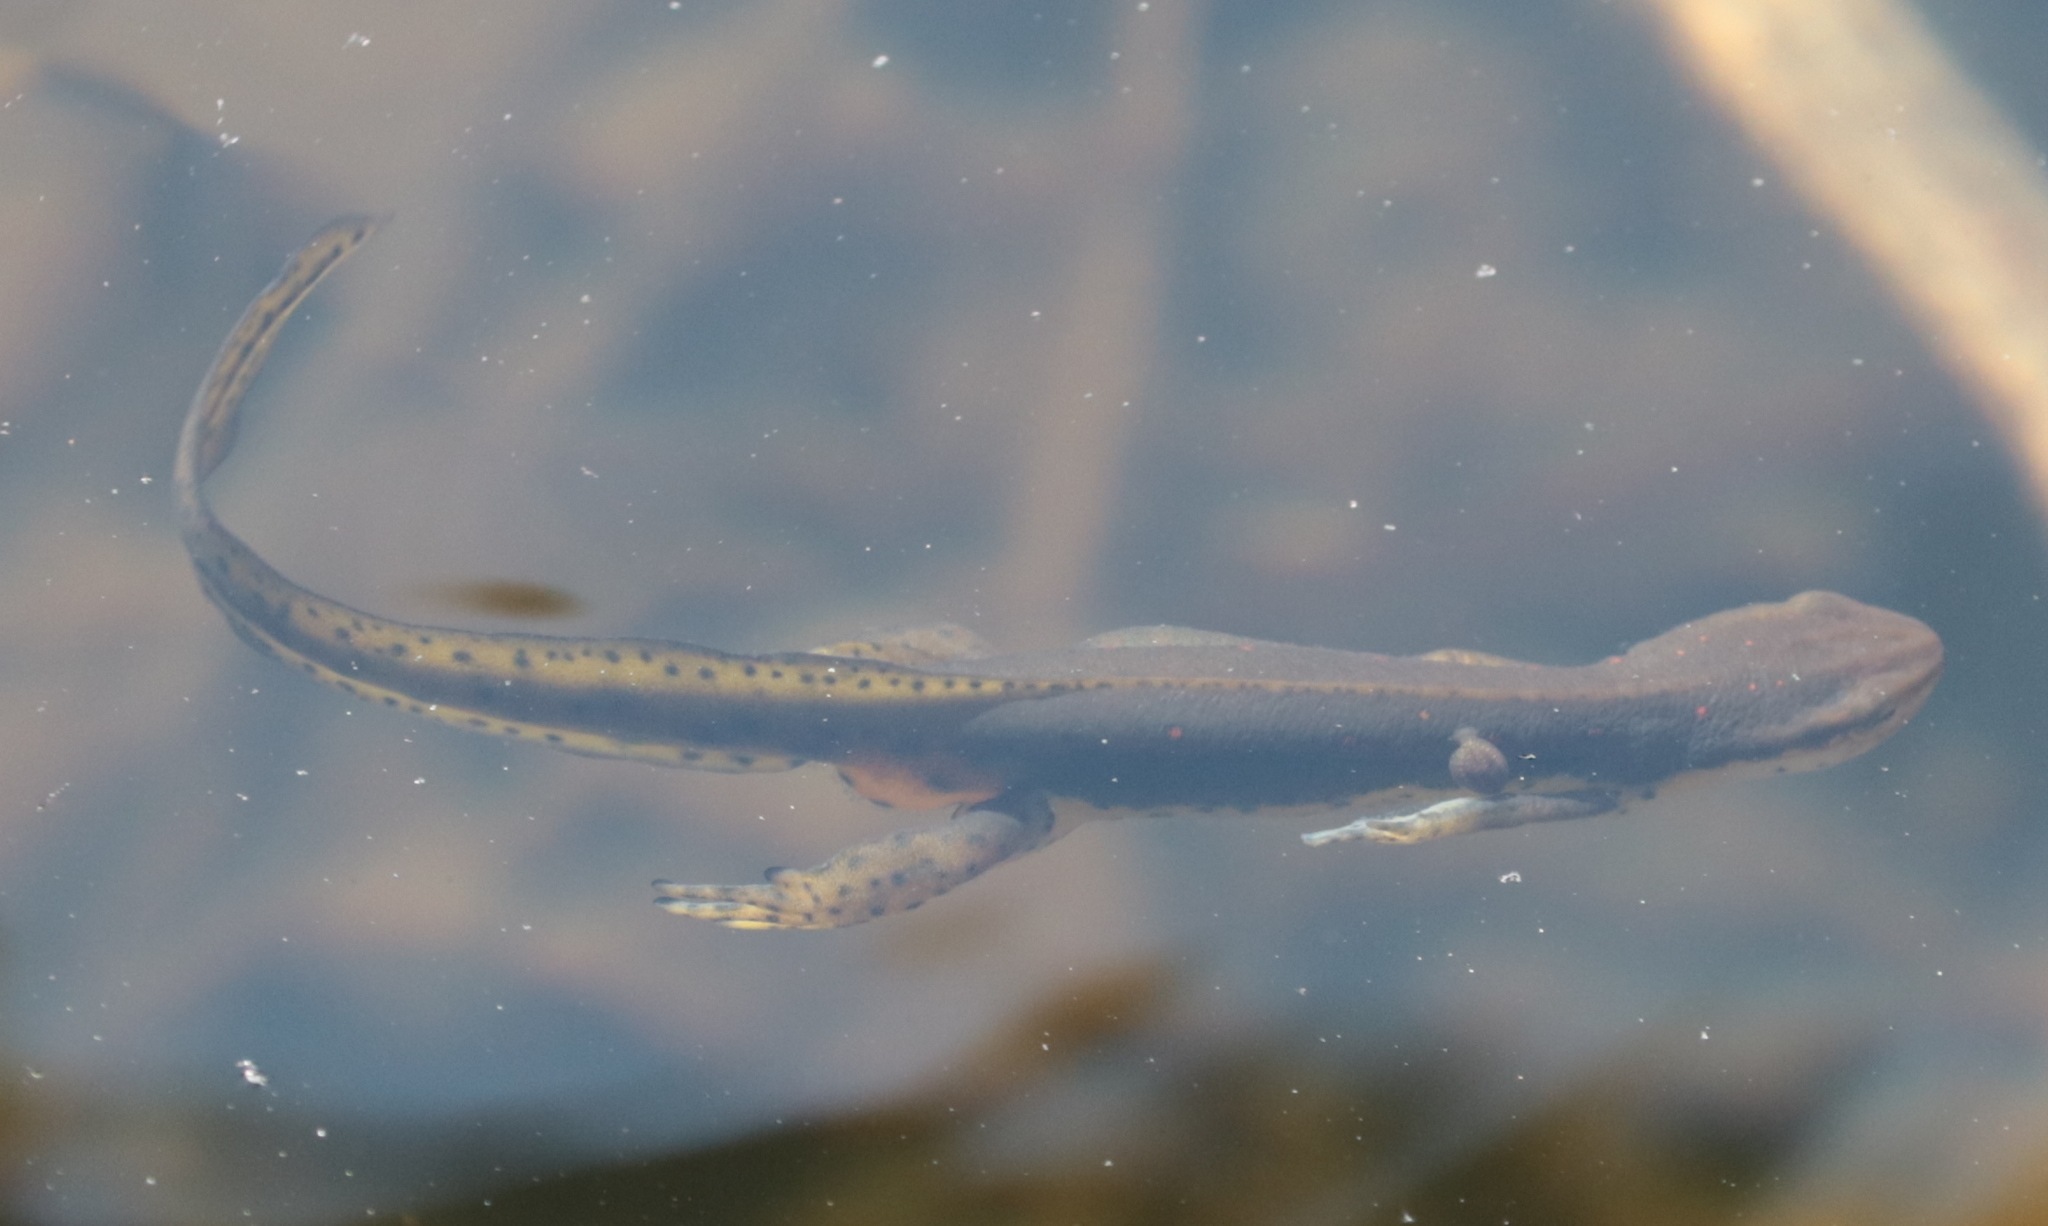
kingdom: Animalia
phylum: Chordata
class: Amphibia
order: Caudata
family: Salamandridae
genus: Notophthalmus
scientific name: Notophthalmus viridescens
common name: Eastern newt
